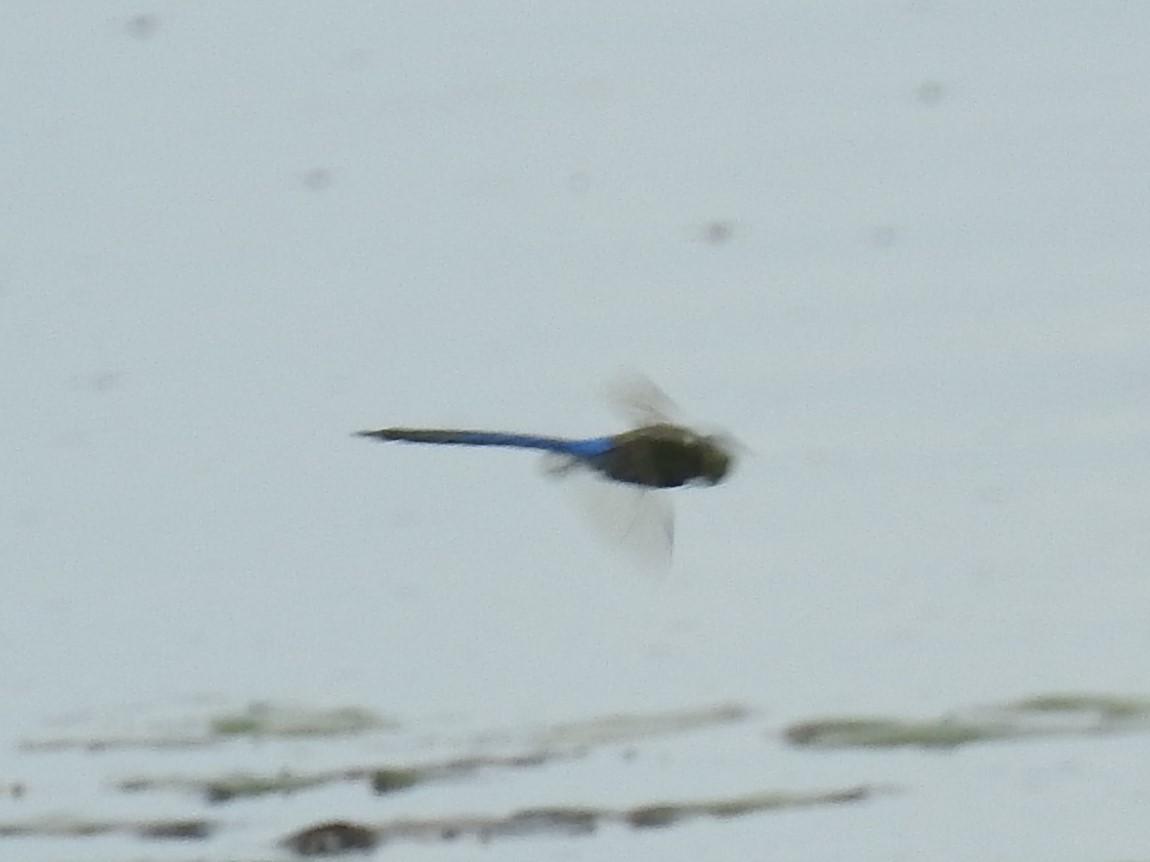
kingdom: Animalia
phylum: Arthropoda
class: Insecta
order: Odonata
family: Aeshnidae
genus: Anax
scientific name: Anax junius
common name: Common green darner
